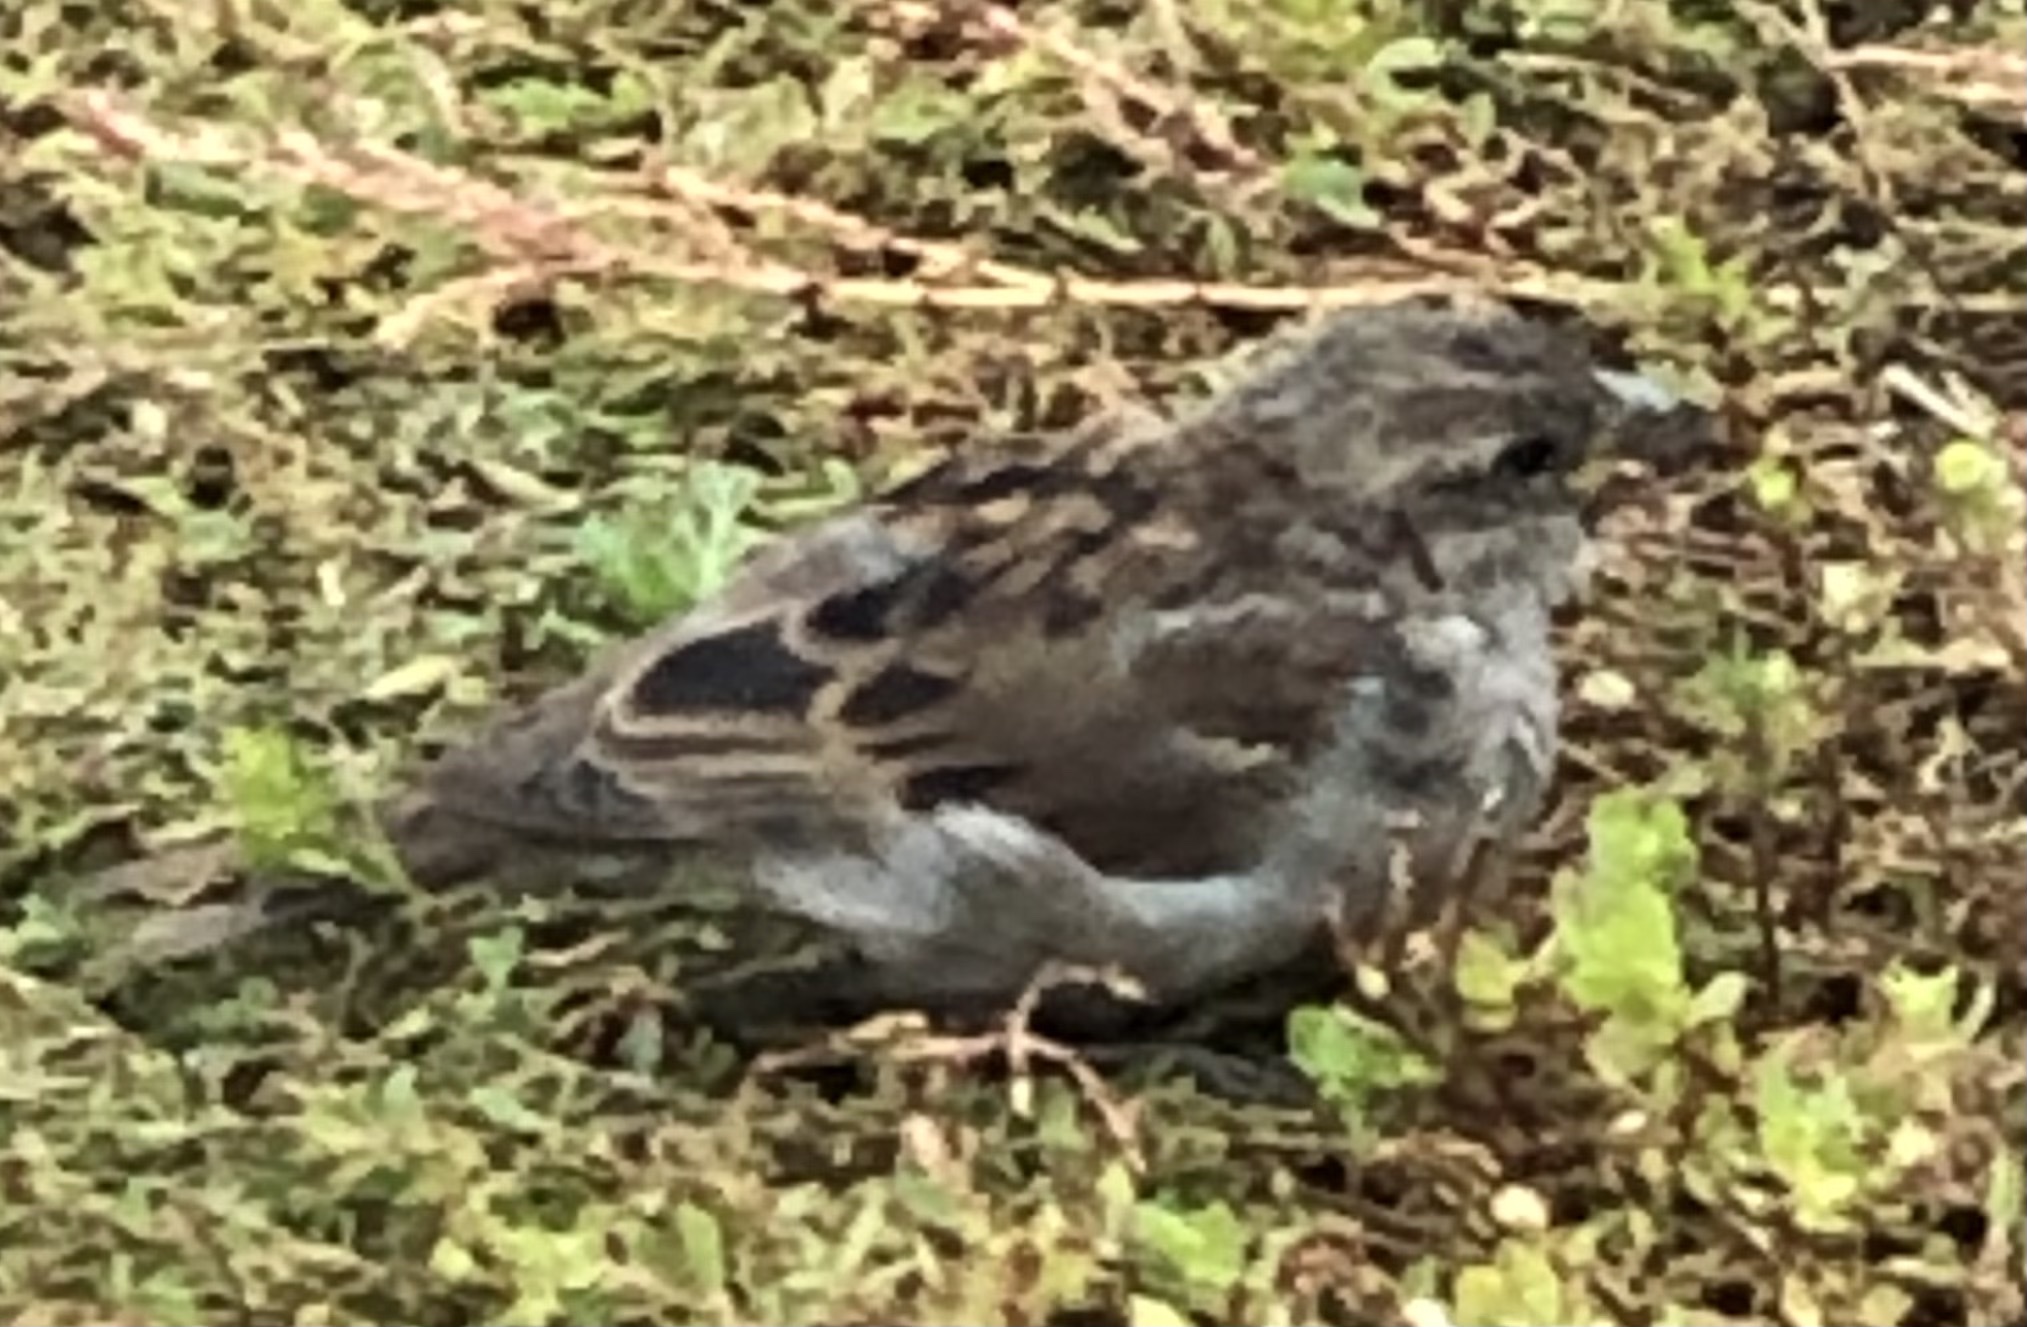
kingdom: Animalia
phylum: Chordata
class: Aves
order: Passeriformes
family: Passeridae
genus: Passer
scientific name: Passer domesticus
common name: House sparrow
